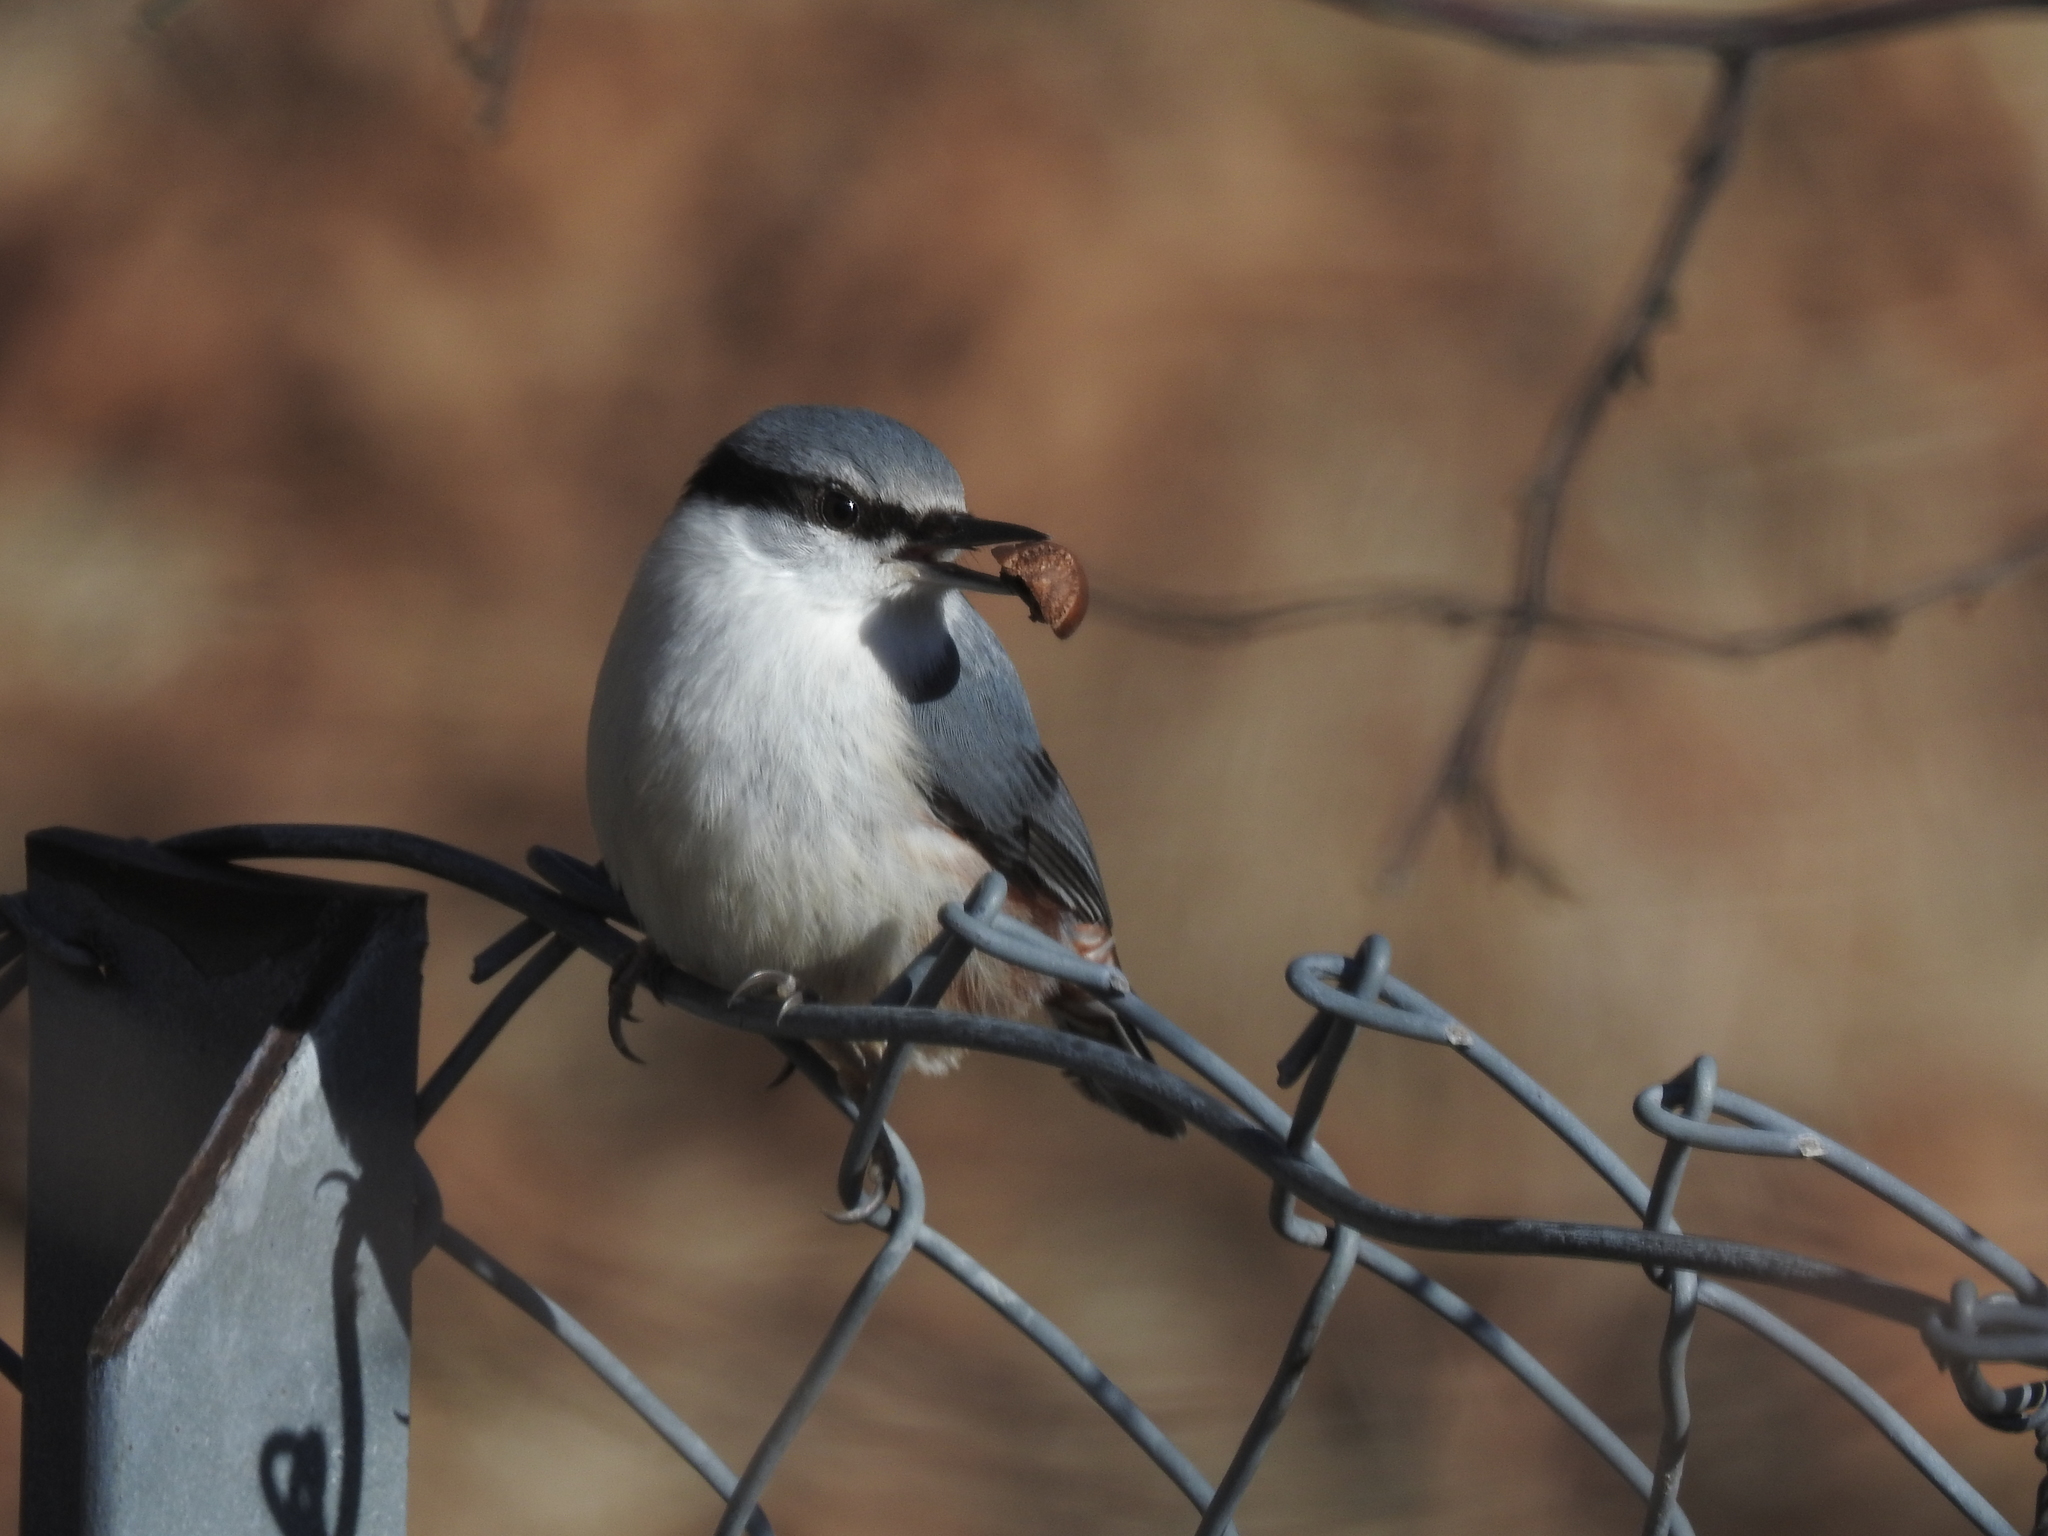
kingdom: Animalia
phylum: Chordata
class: Aves
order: Passeriformes
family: Sittidae
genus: Sitta
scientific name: Sitta europaea
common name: Eurasian nuthatch
